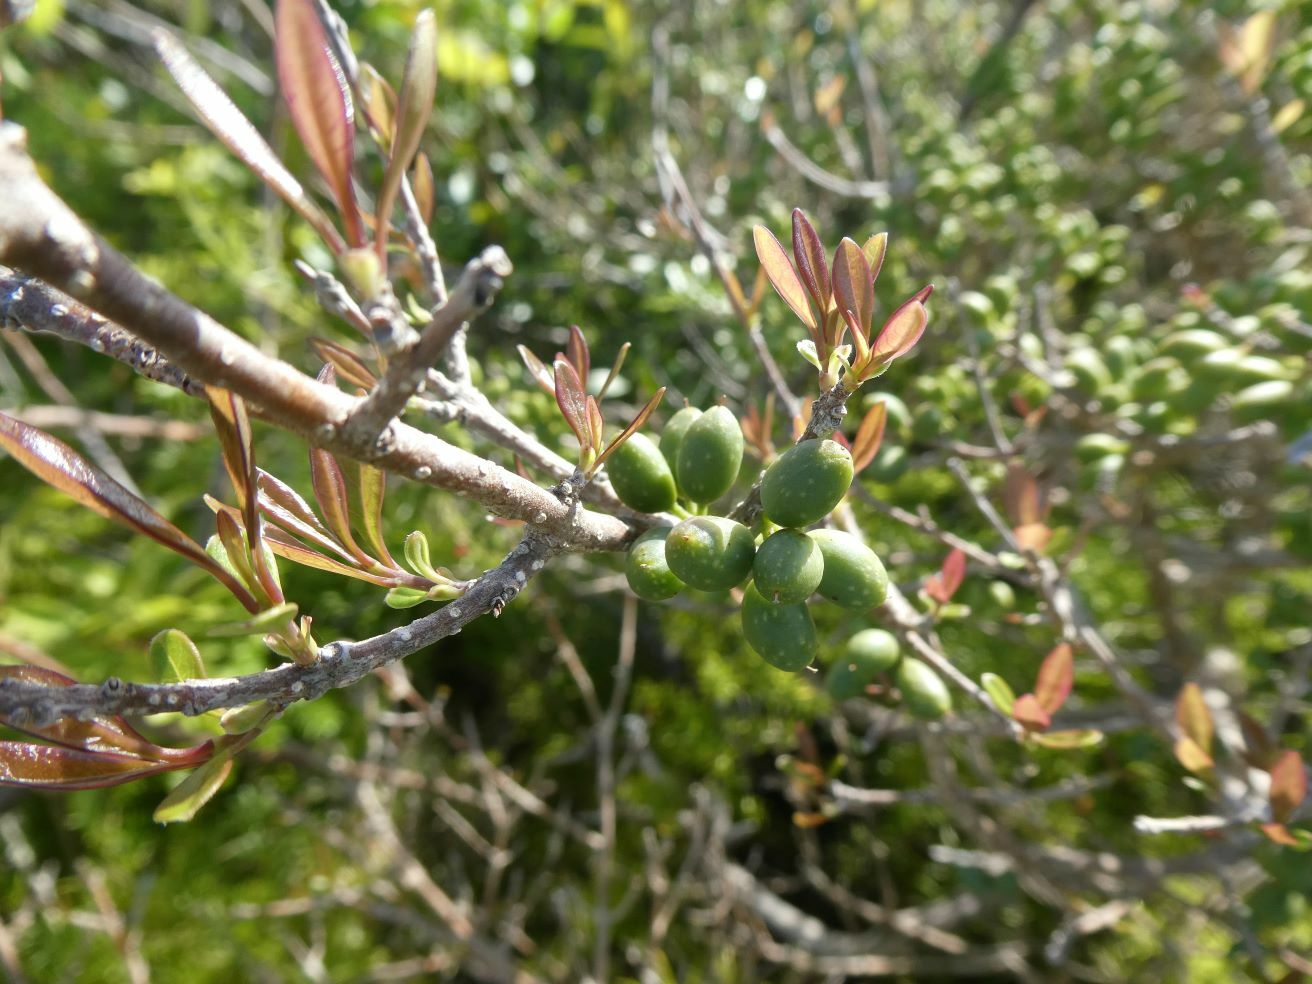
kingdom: Plantae
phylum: Tracheophyta
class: Magnoliopsida
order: Lamiales
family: Oleaceae
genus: Forestiera
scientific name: Forestiera segregata
